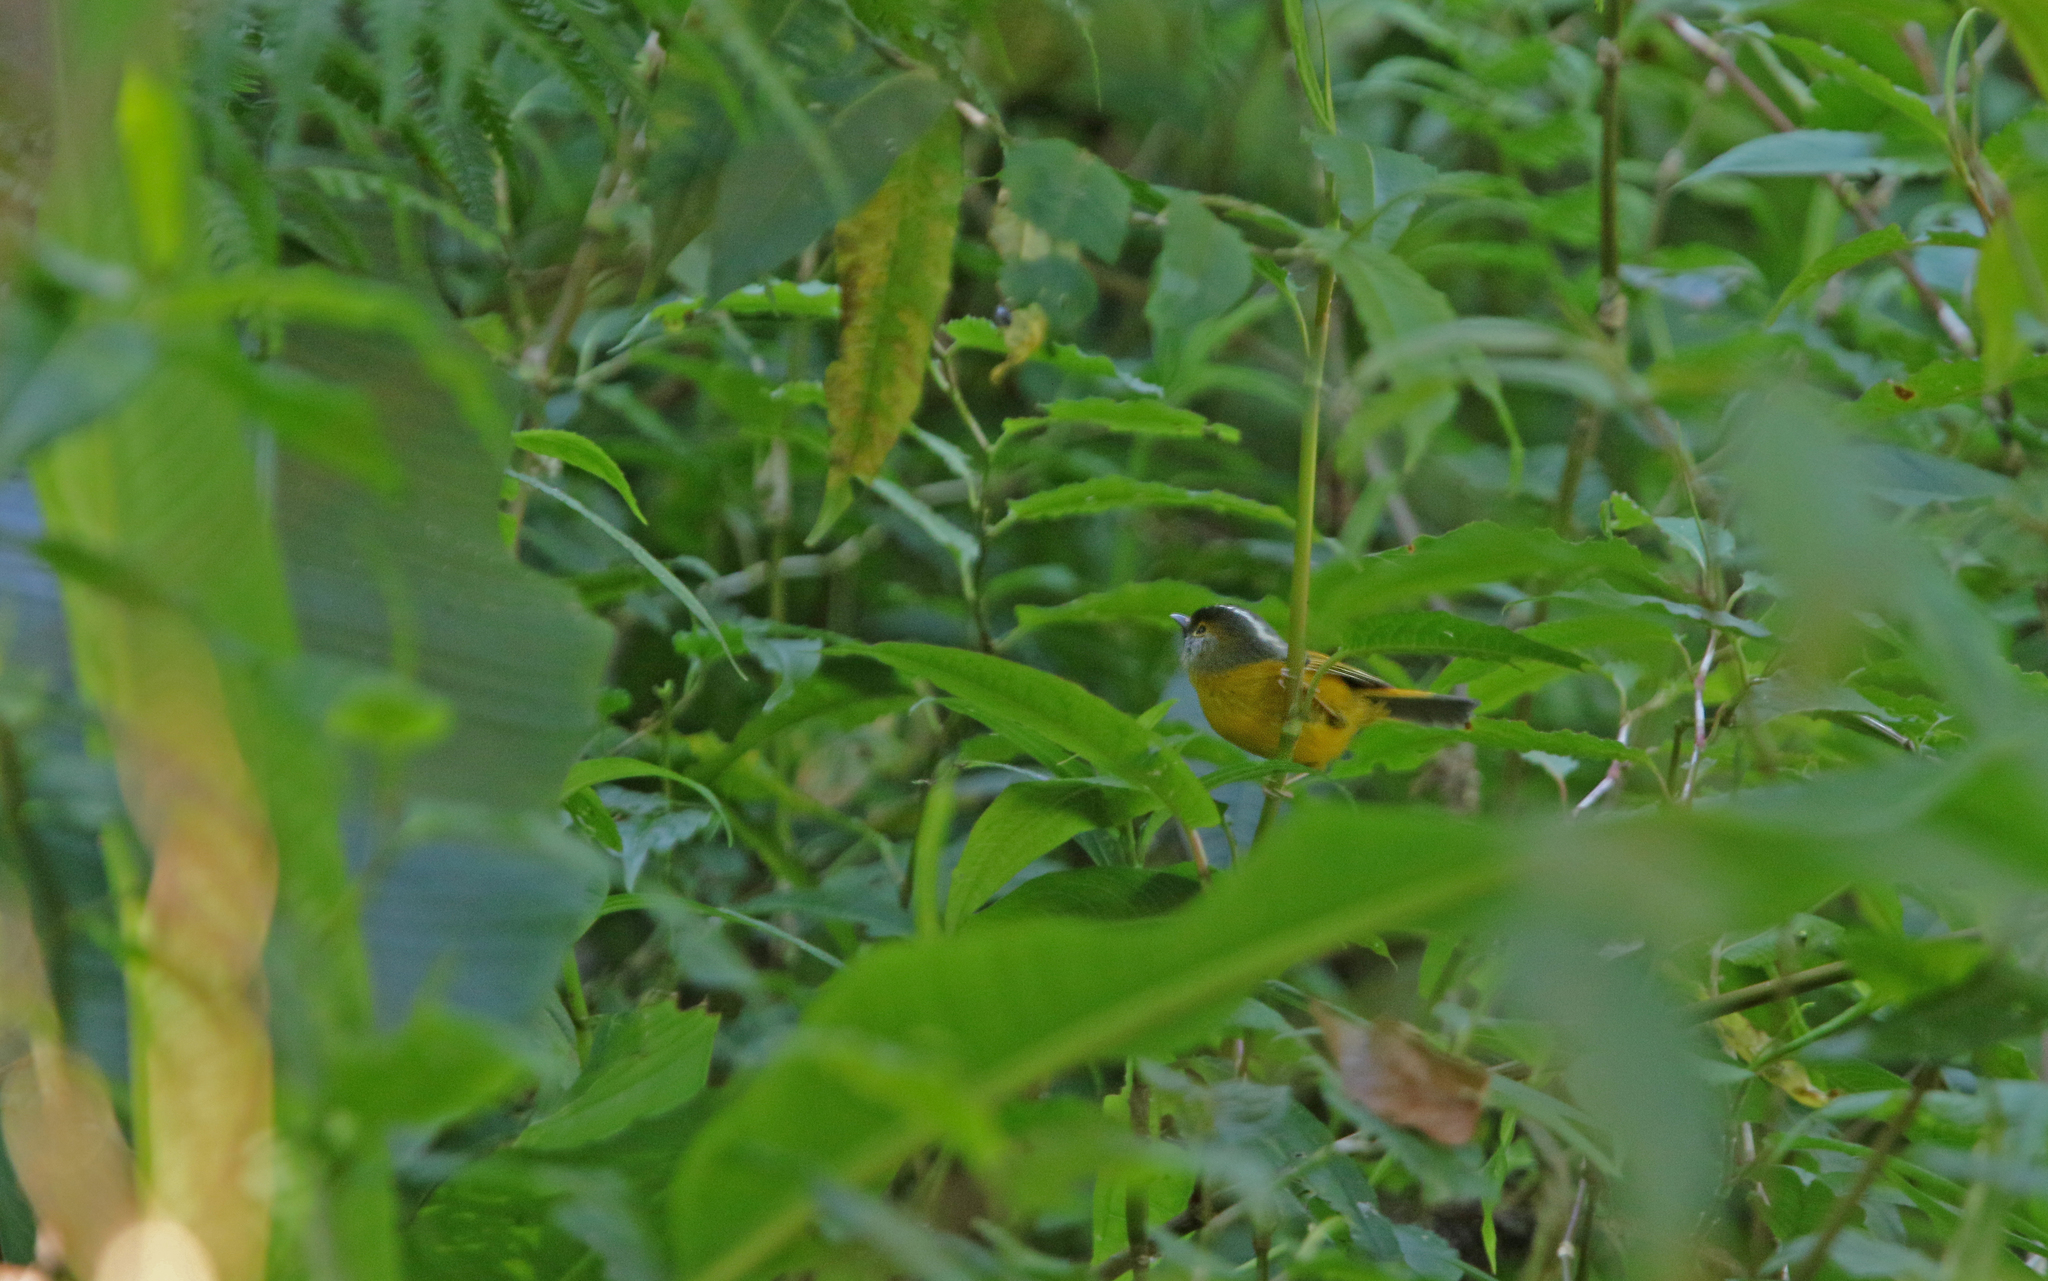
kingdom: Animalia
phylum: Chordata
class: Aves
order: Passeriformes
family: Sylviidae
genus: Lioparus
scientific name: Lioparus chrysotis
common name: Golden-breasted fulvetta
